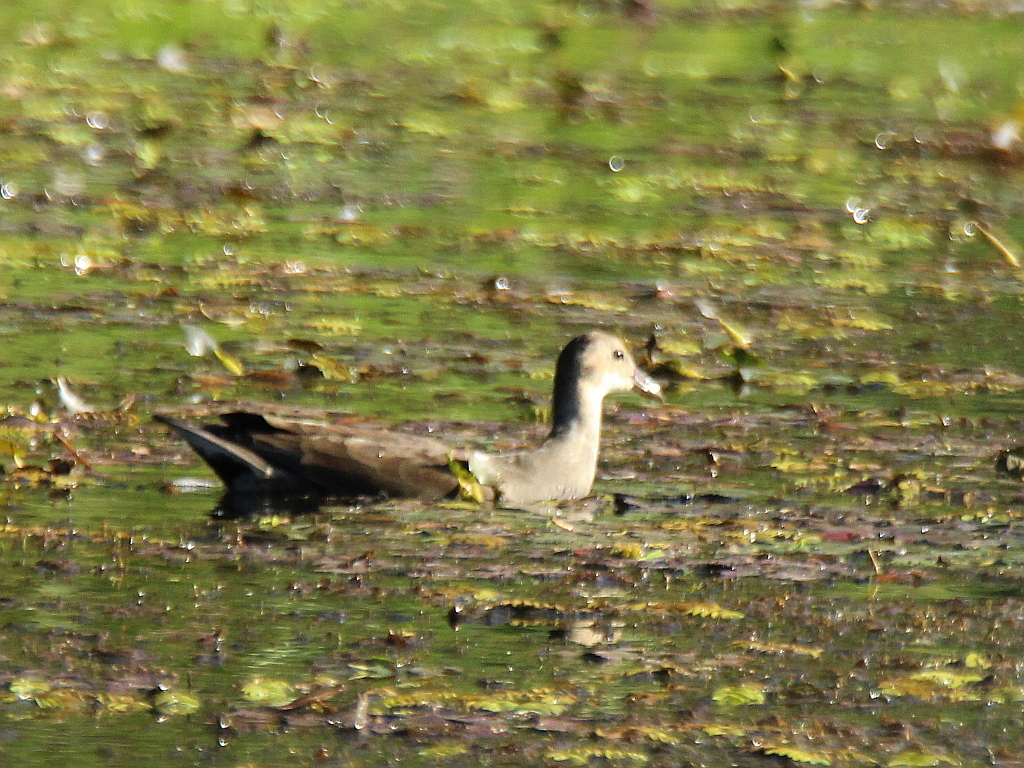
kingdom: Animalia
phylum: Chordata
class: Aves
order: Gruiformes
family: Rallidae
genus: Gallinula
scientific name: Gallinula chloropus
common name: Common moorhen
